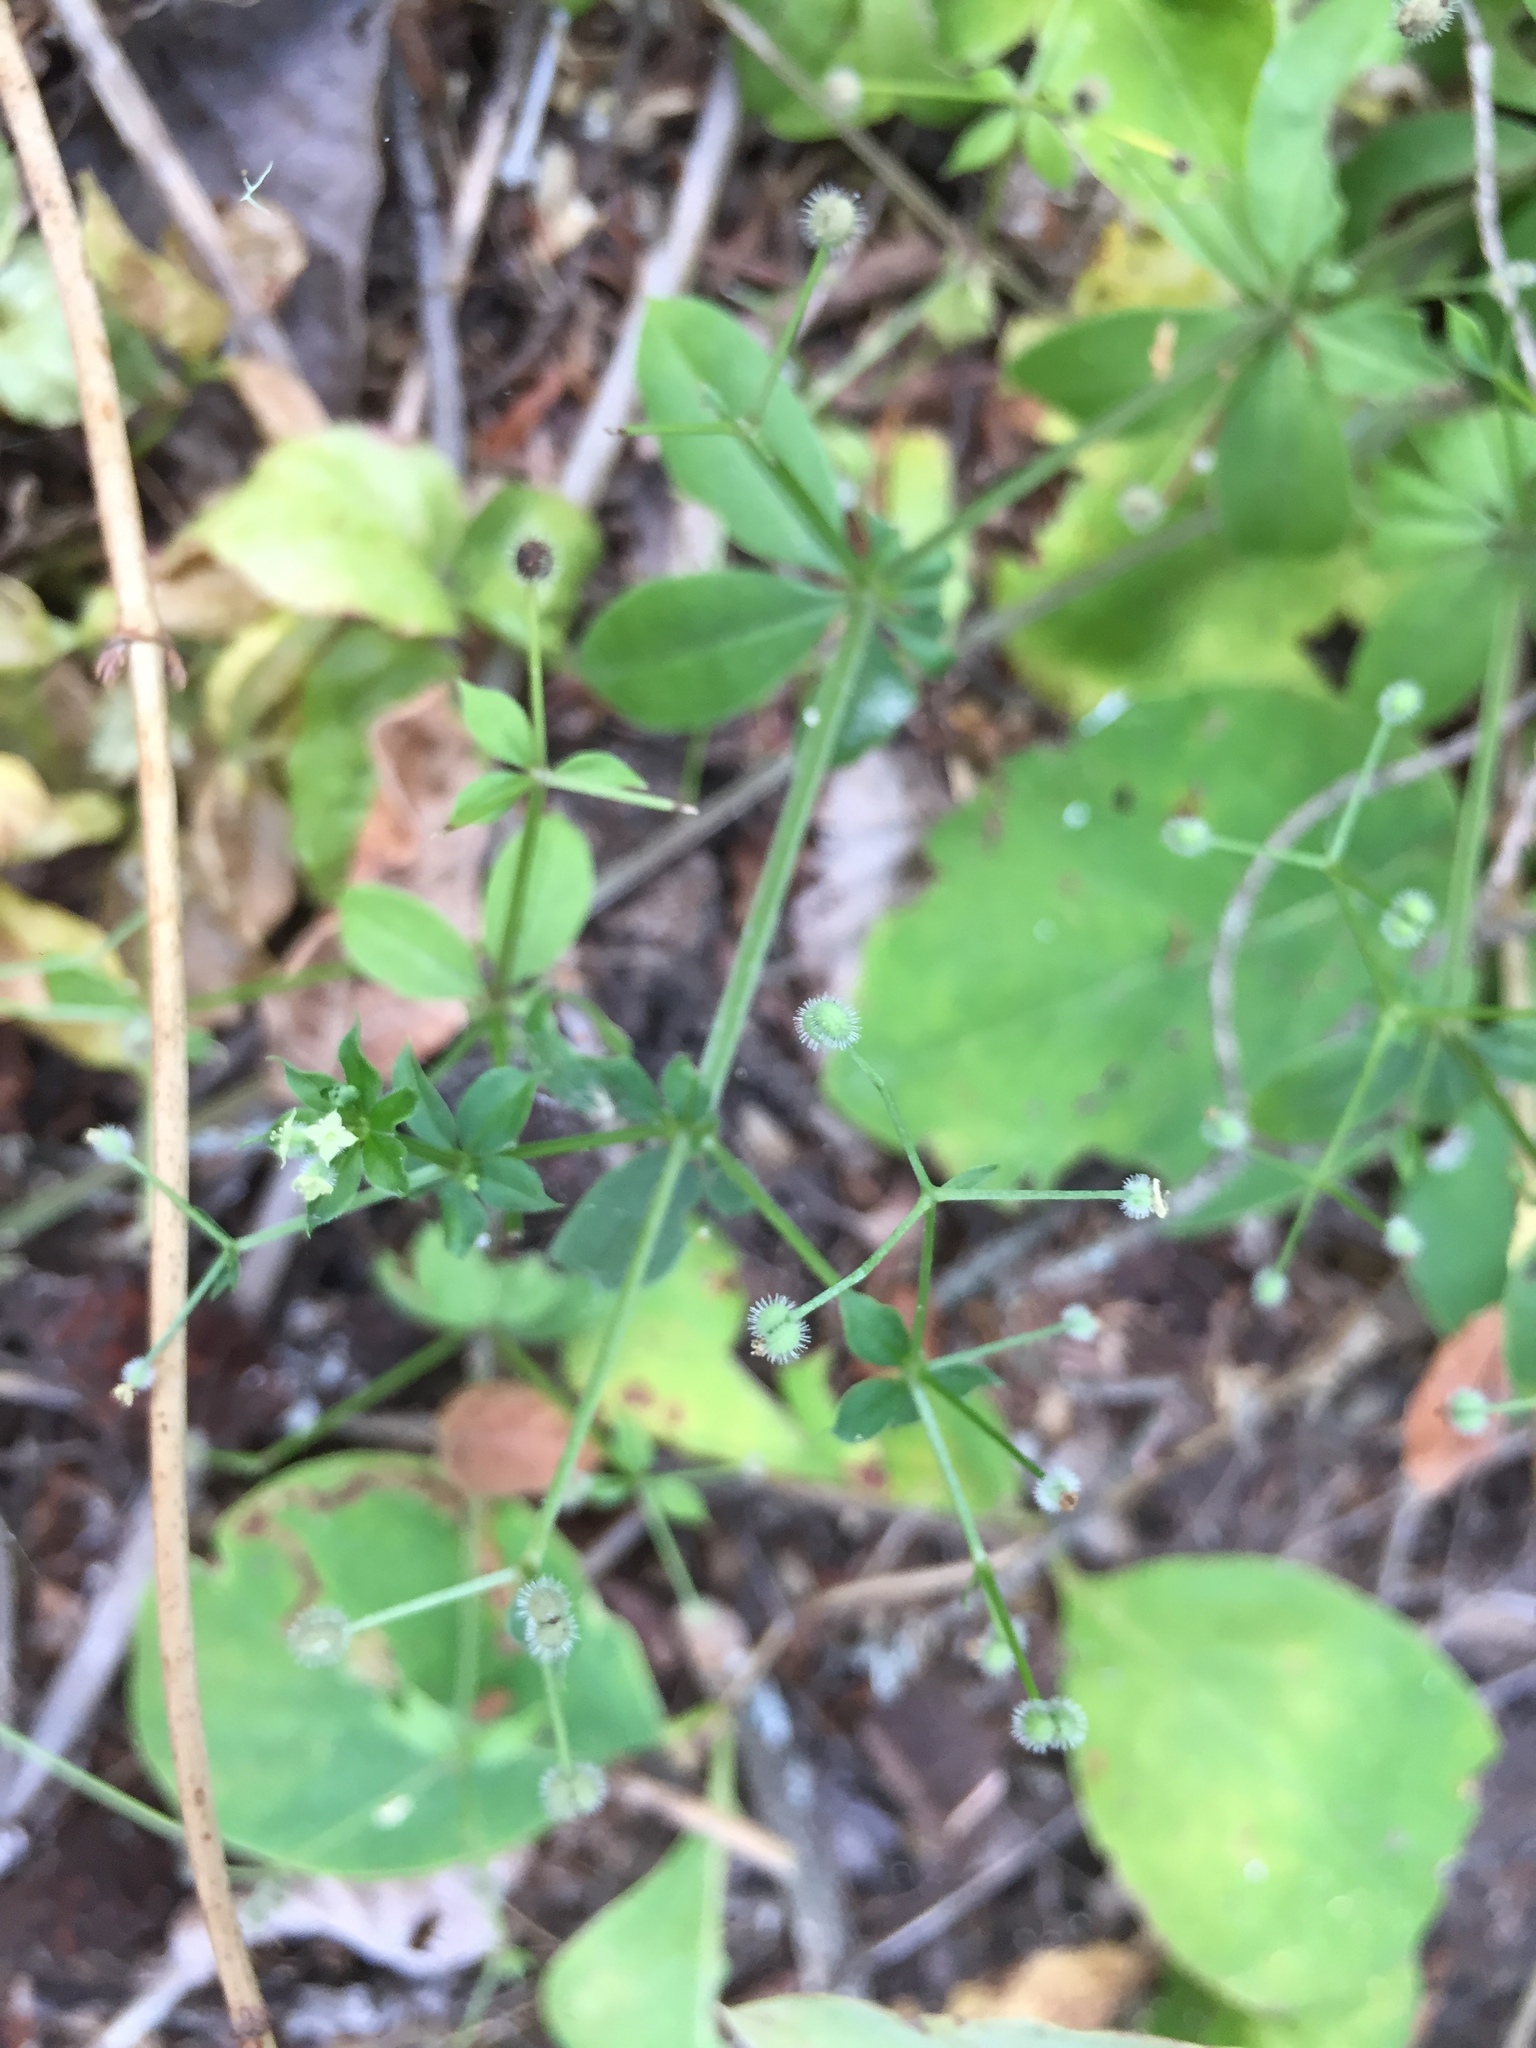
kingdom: Plantae
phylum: Tracheophyta
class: Magnoliopsida
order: Gentianales
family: Rubiaceae
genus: Galium
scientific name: Galium triflorum
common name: Fragrant bedstraw
